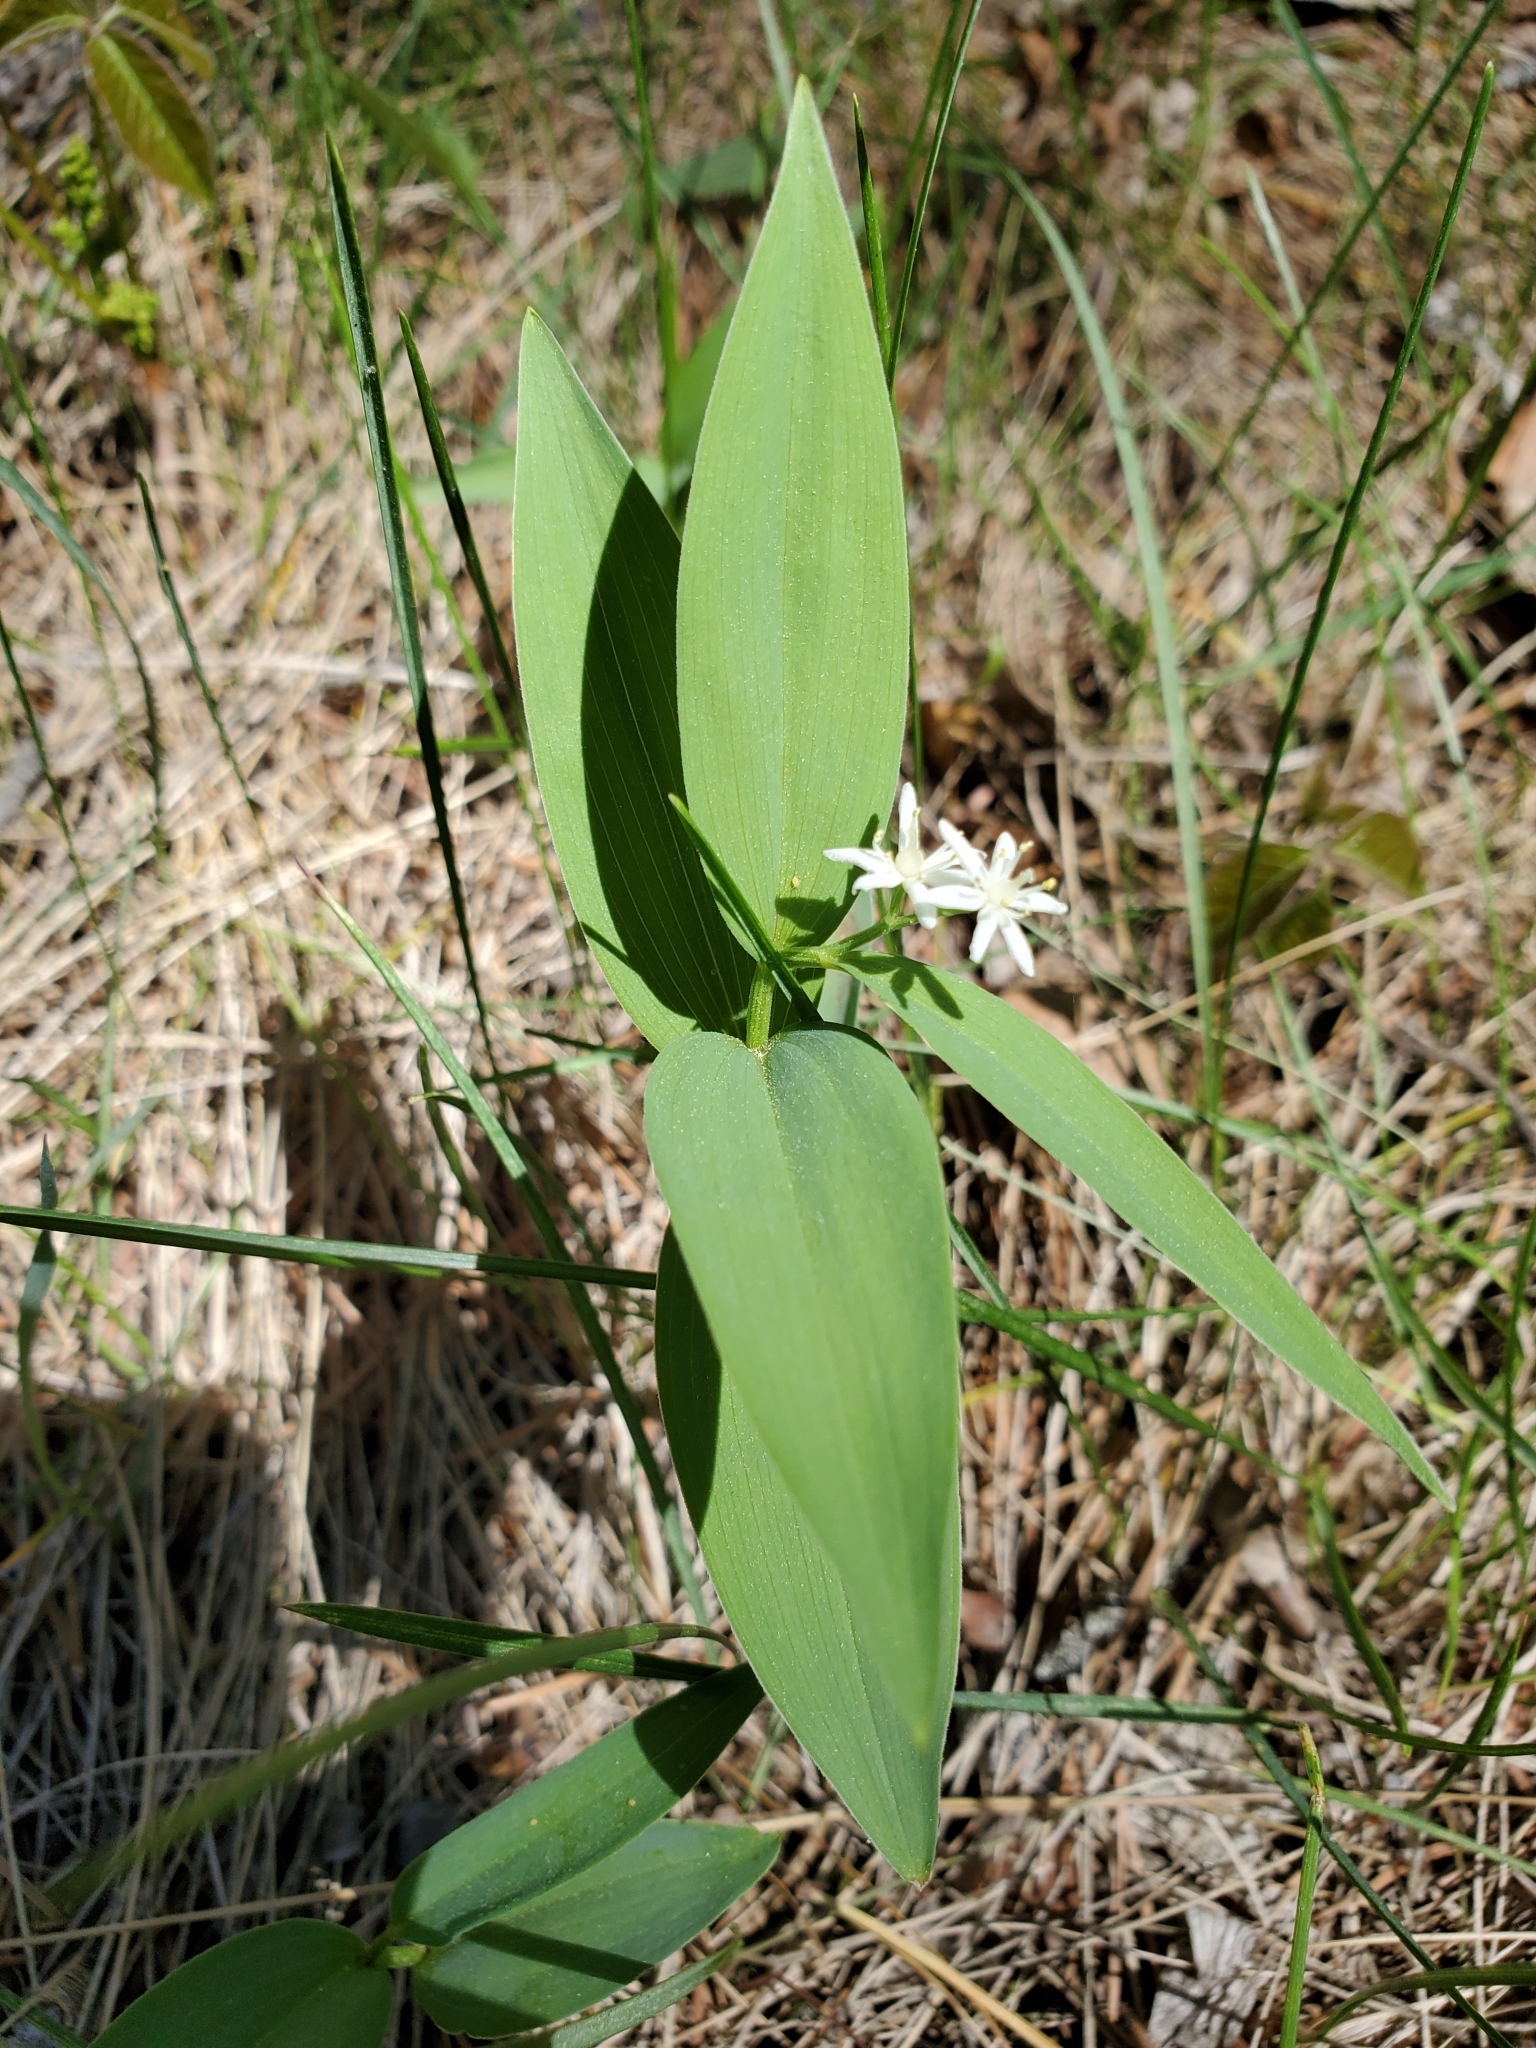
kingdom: Plantae
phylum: Tracheophyta
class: Liliopsida
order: Asparagales
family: Asparagaceae
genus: Maianthemum
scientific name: Maianthemum stellatum
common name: Little false solomon's seal
